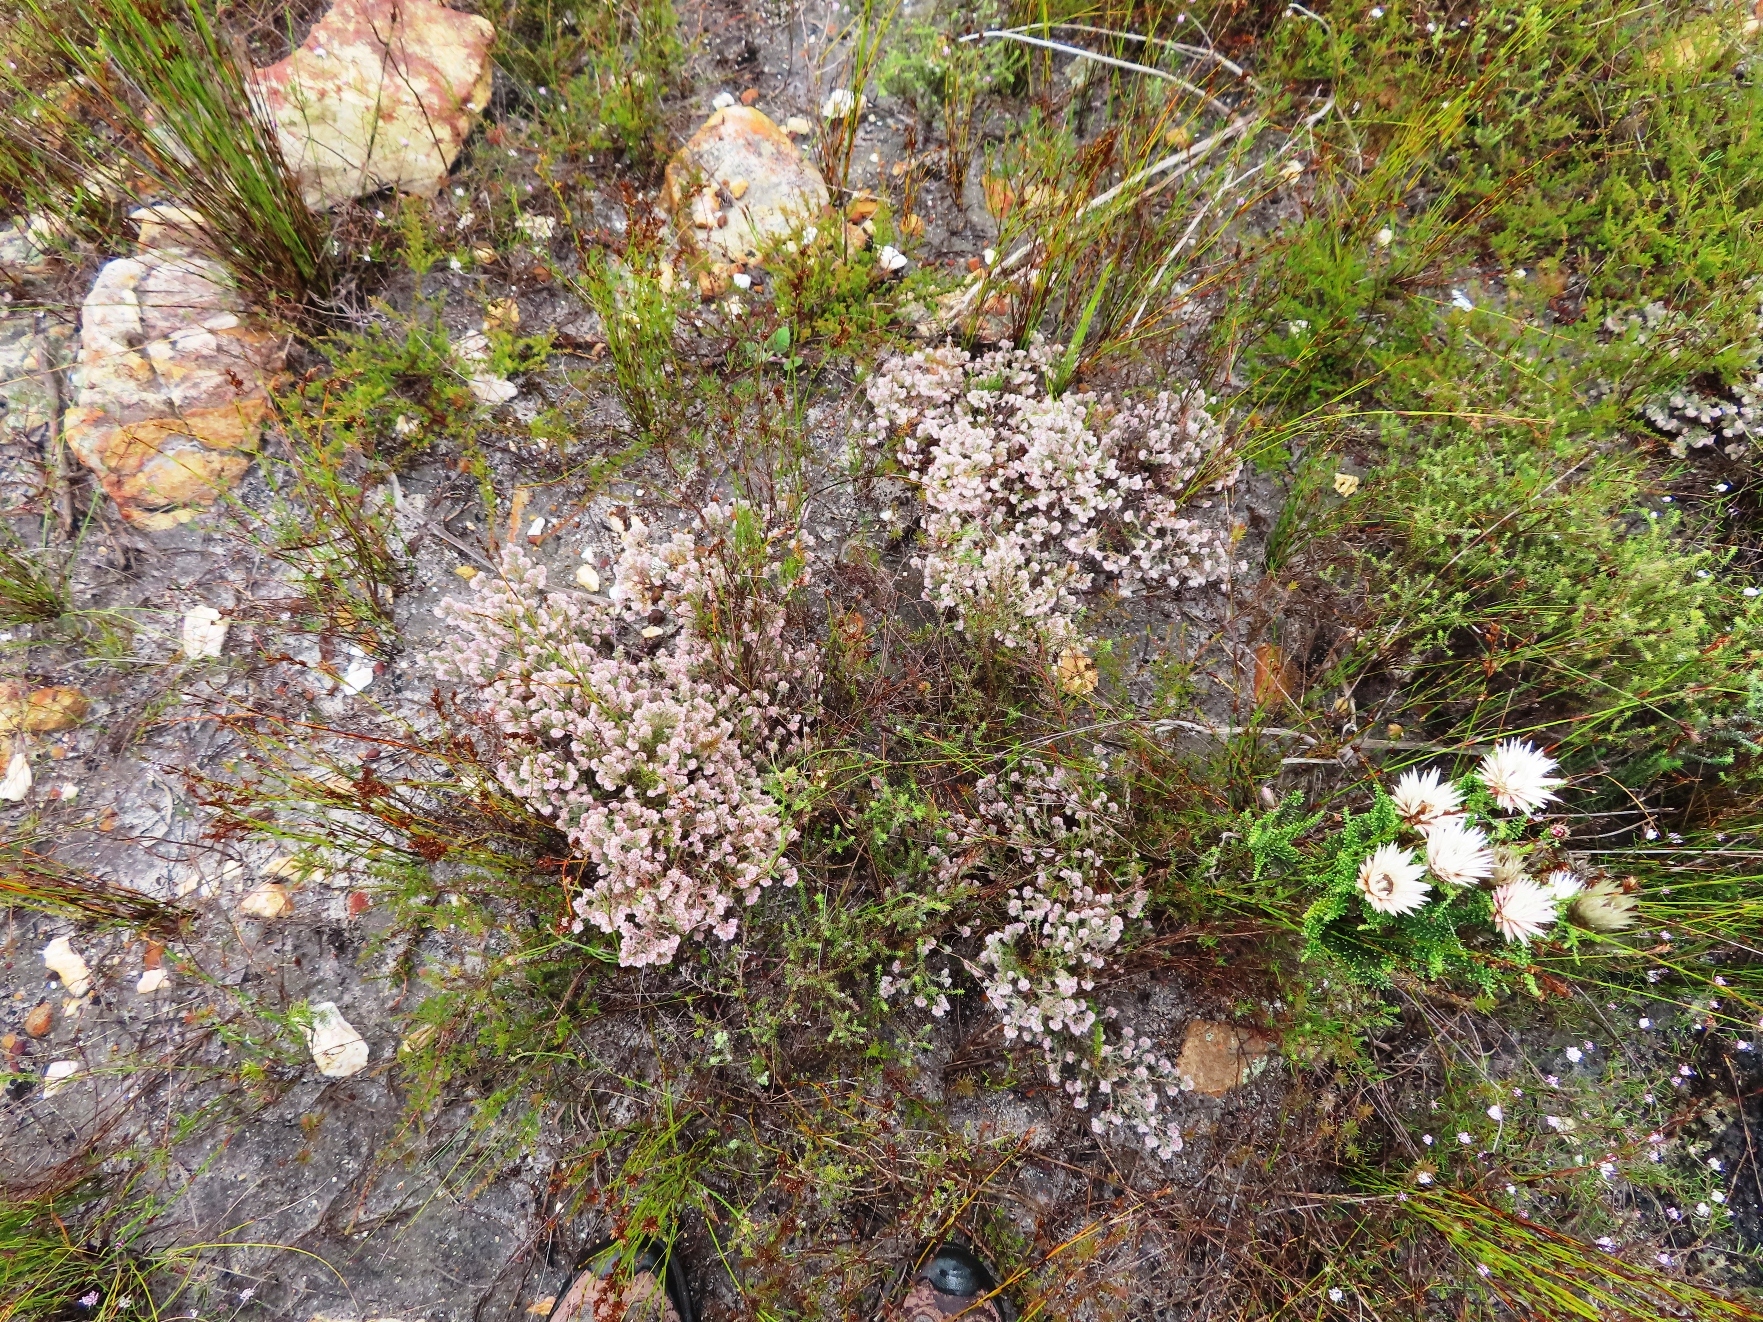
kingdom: Plantae
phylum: Tracheophyta
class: Magnoliopsida
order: Ericales
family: Ericaceae
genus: Erica
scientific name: Erica pilosiflora
